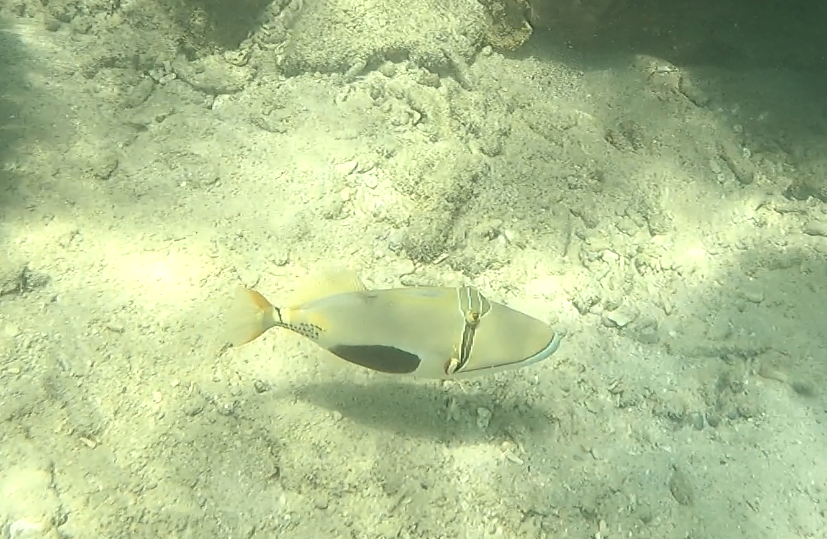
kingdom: Animalia
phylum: Chordata
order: Tetraodontiformes
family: Balistidae
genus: Rhinecanthus
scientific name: Rhinecanthus verrucosus
